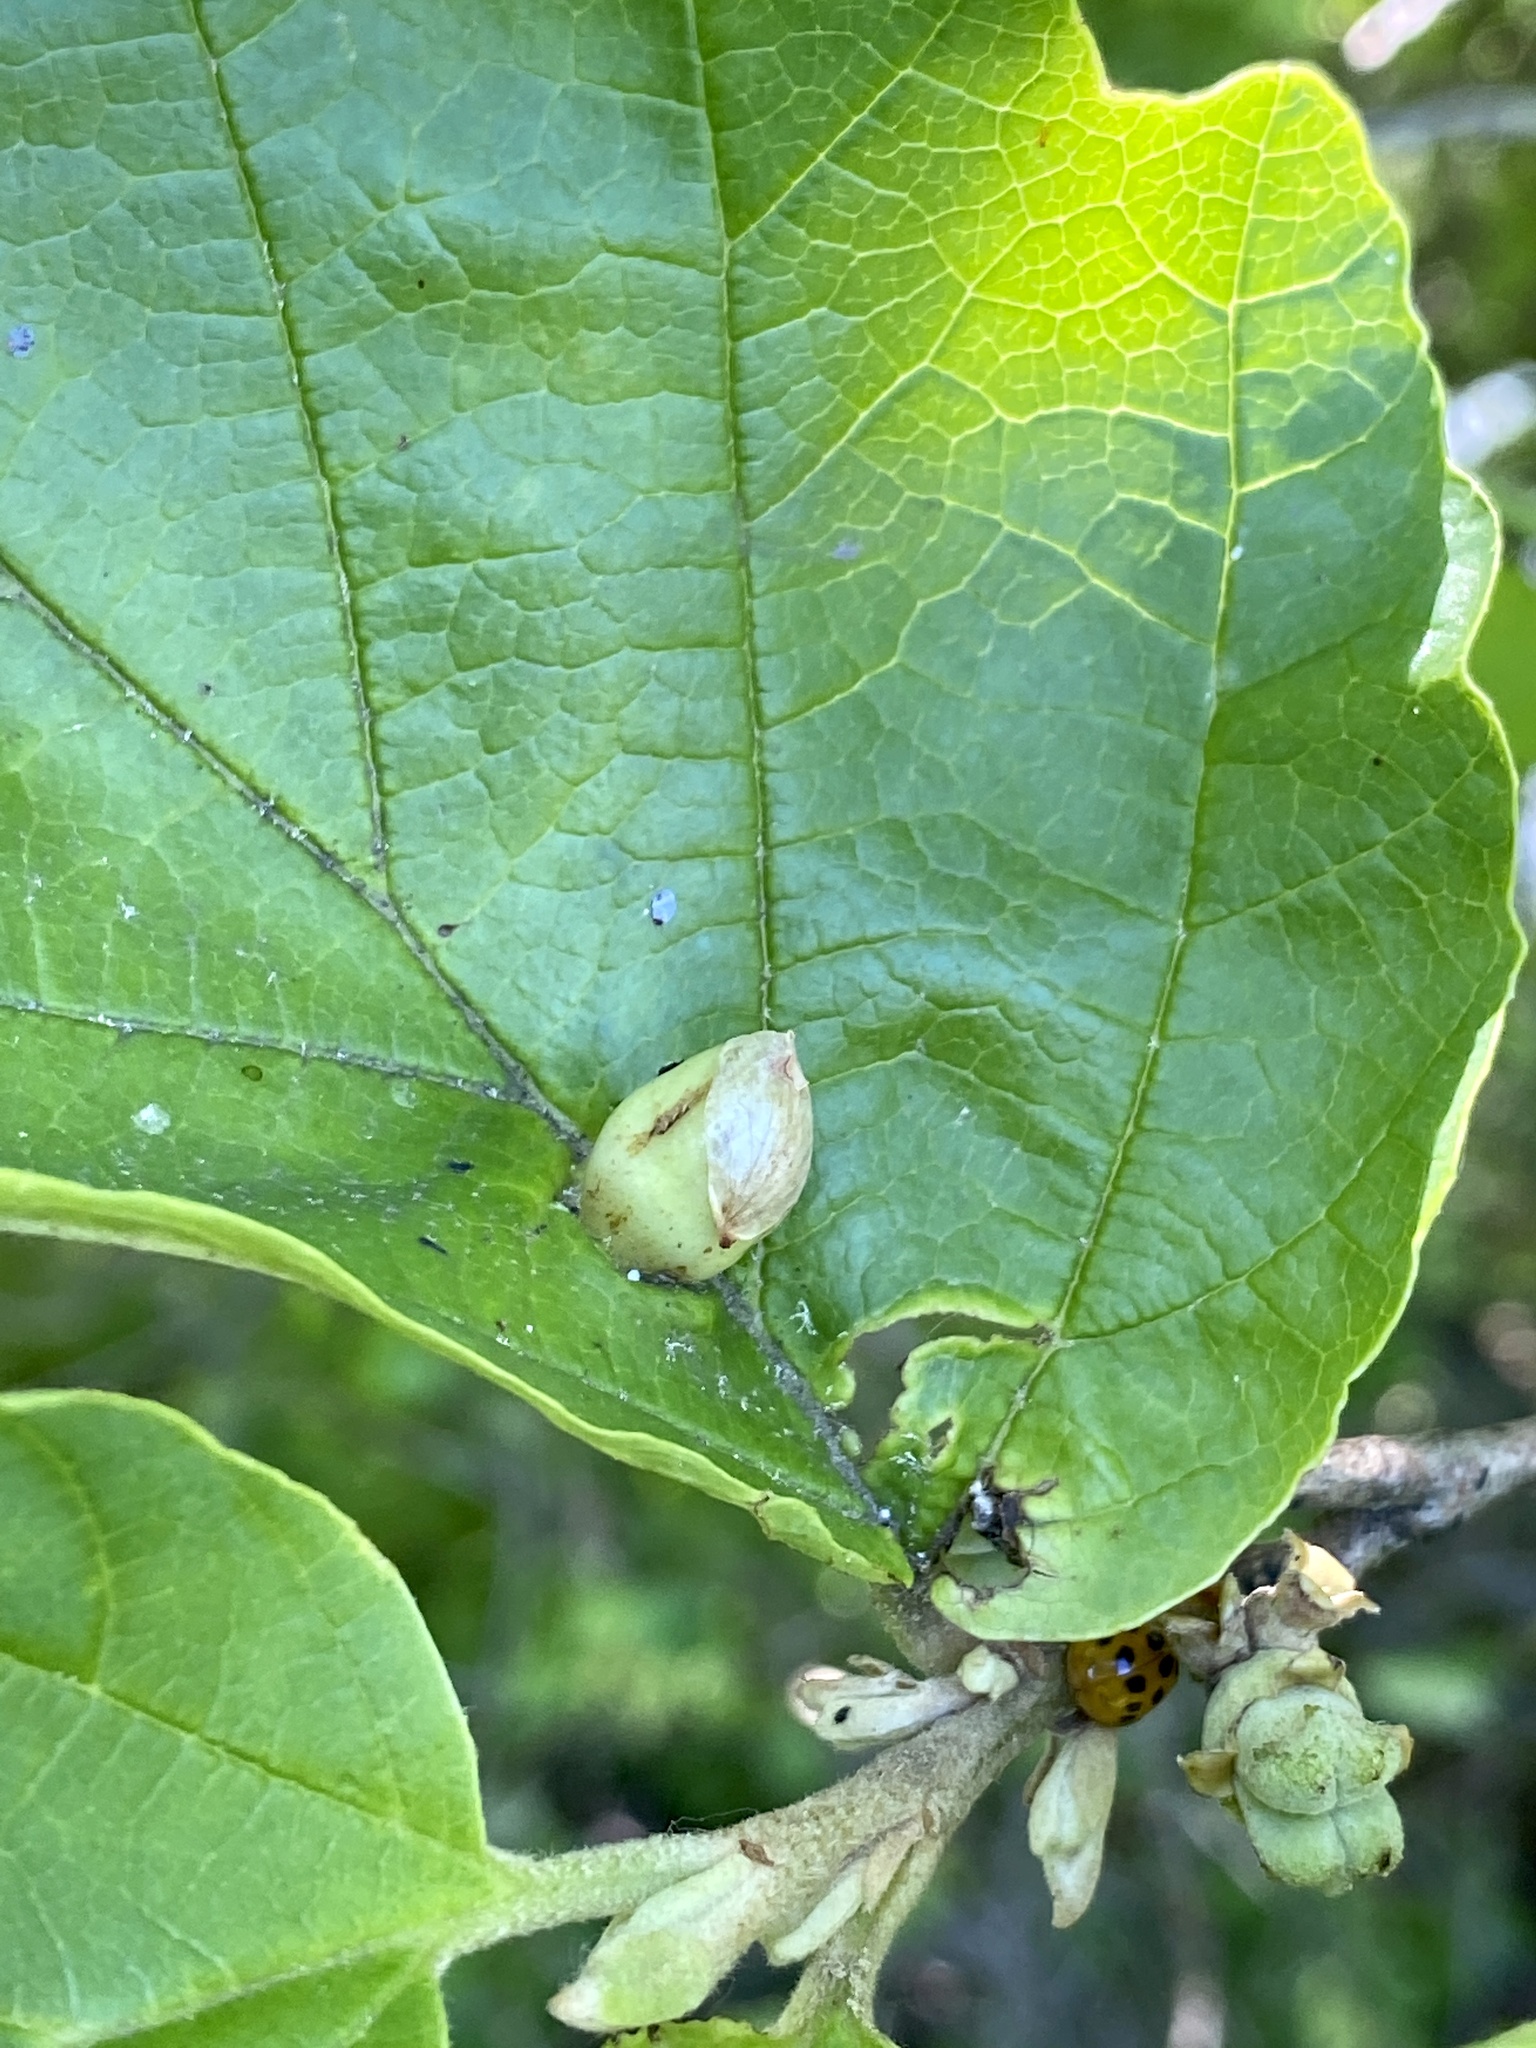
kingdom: Animalia
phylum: Arthropoda
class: Insecta
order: Hemiptera
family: Aphididae
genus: Hormaphis
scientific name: Hormaphis hamamelidis
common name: Witch-hazel cone gall aphid
